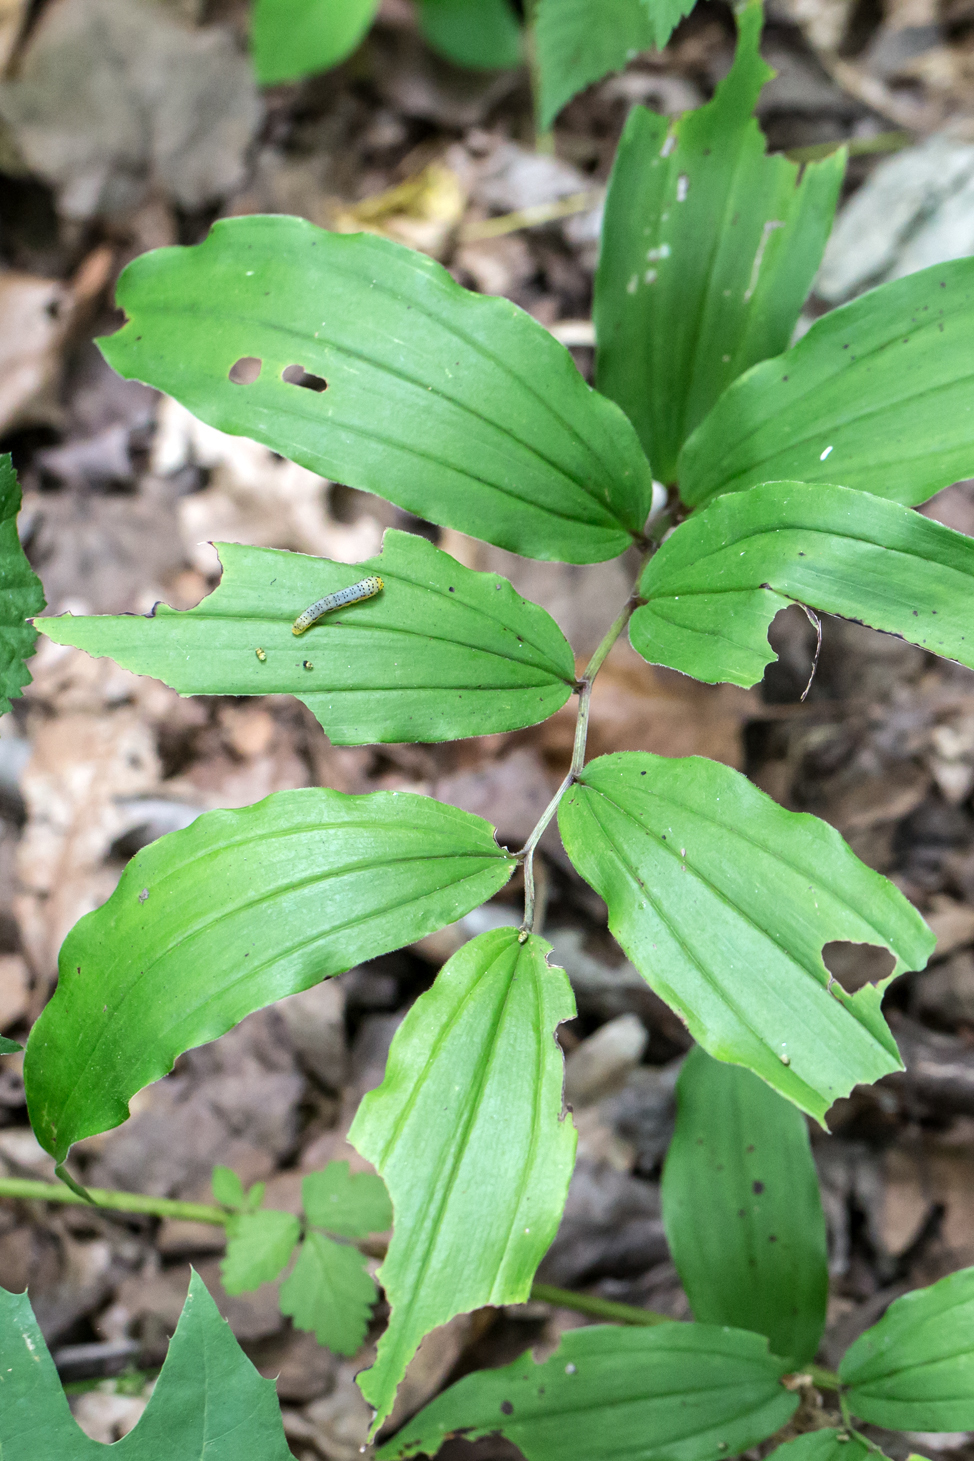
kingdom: Plantae
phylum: Tracheophyta
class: Liliopsida
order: Asparagales
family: Asparagaceae
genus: Maianthemum
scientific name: Maianthemum racemosum
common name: False spikenard
